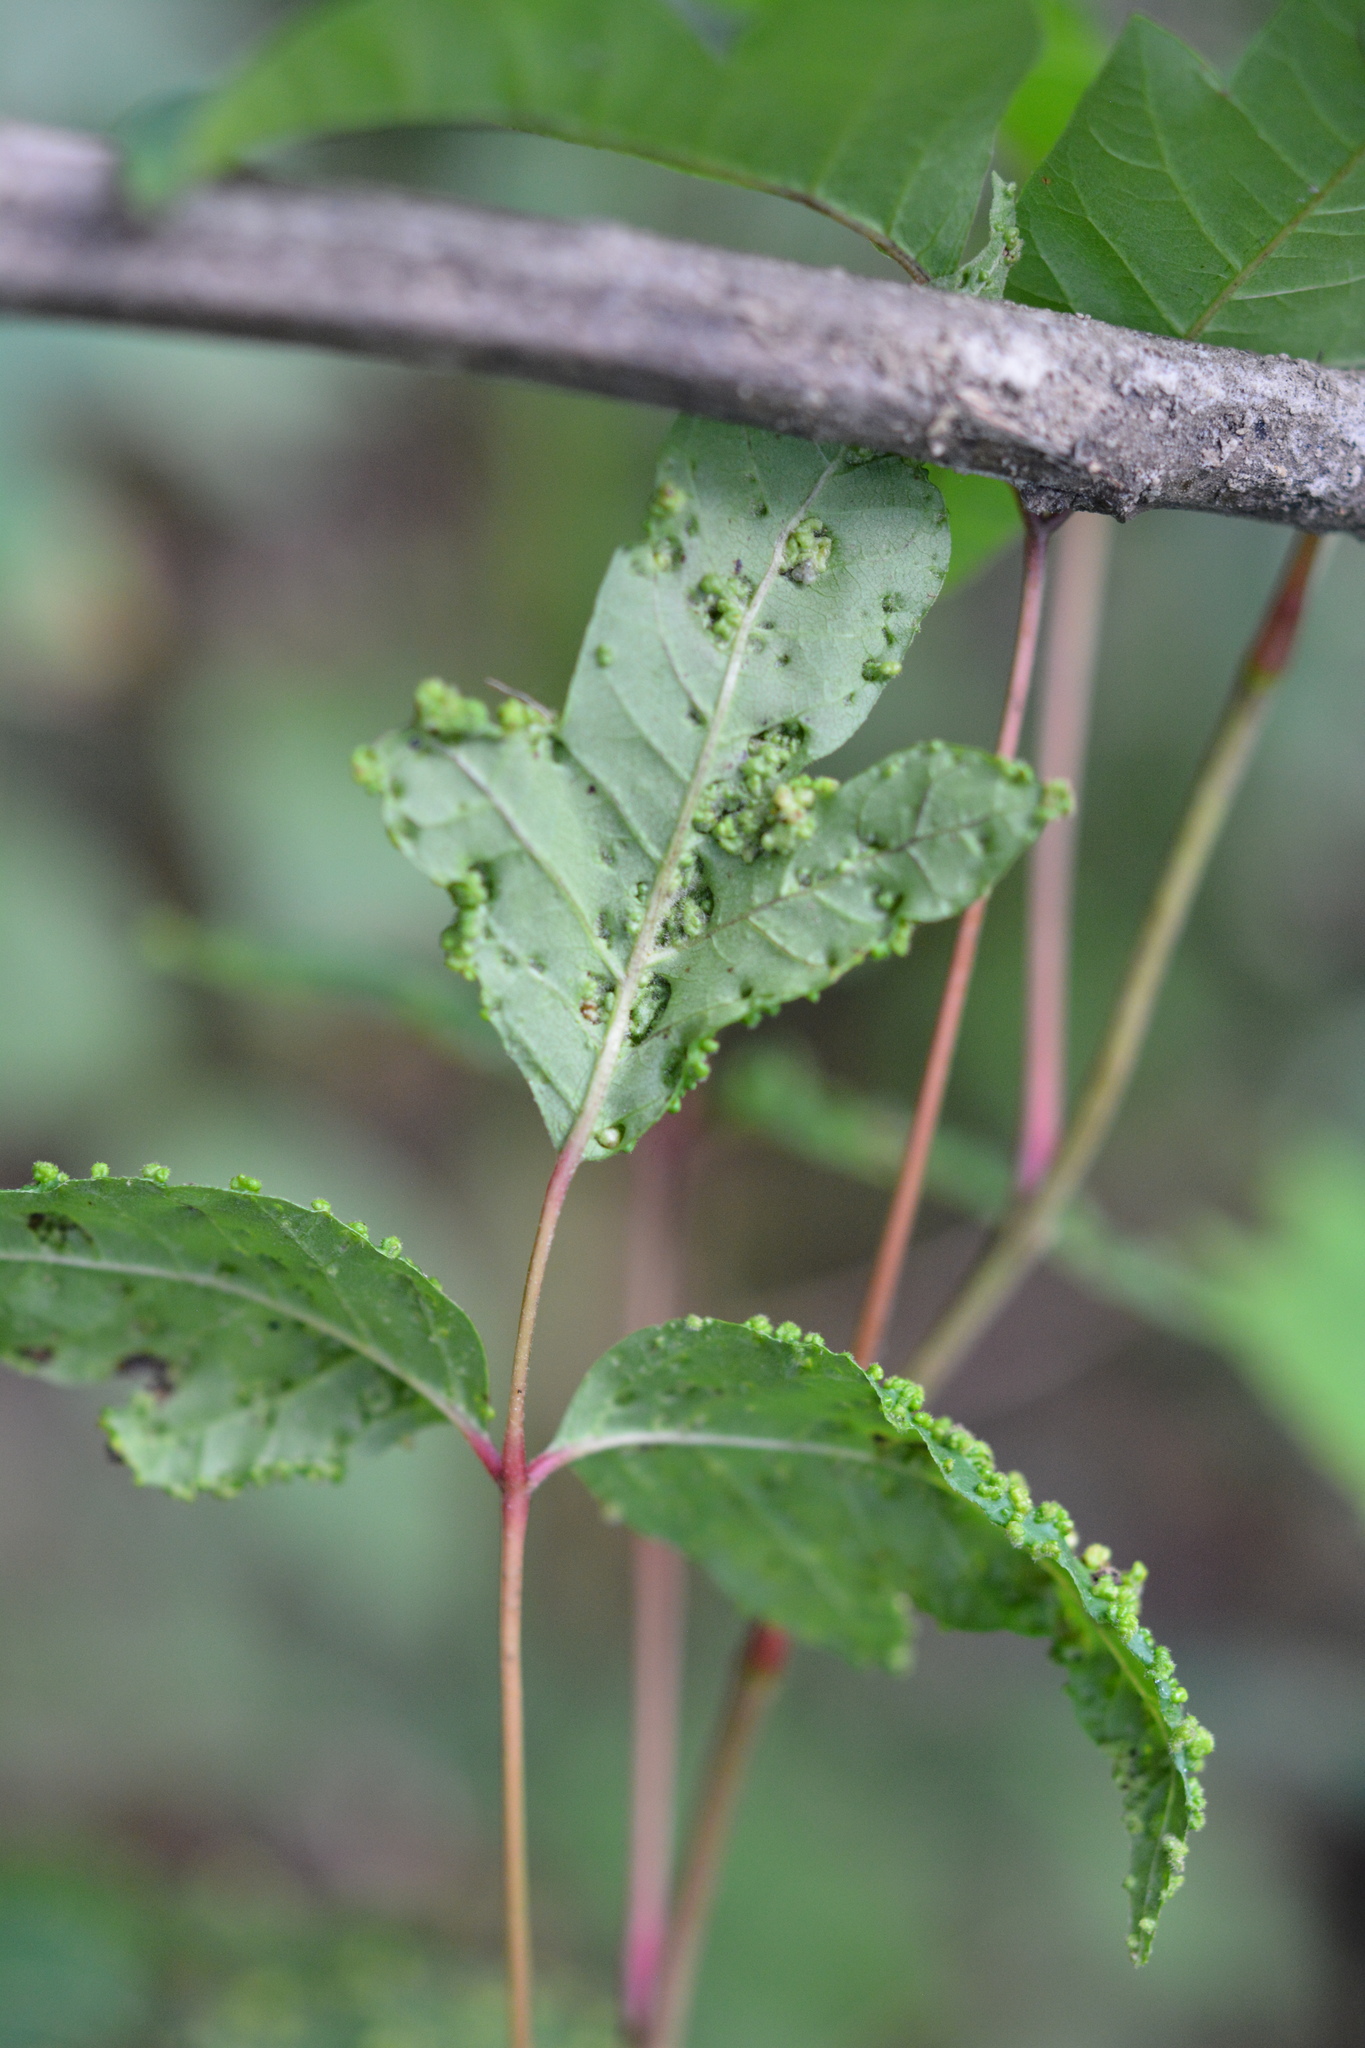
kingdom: Animalia
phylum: Arthropoda
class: Arachnida
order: Trombidiformes
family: Eriophyidae
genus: Aculops
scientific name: Aculops
